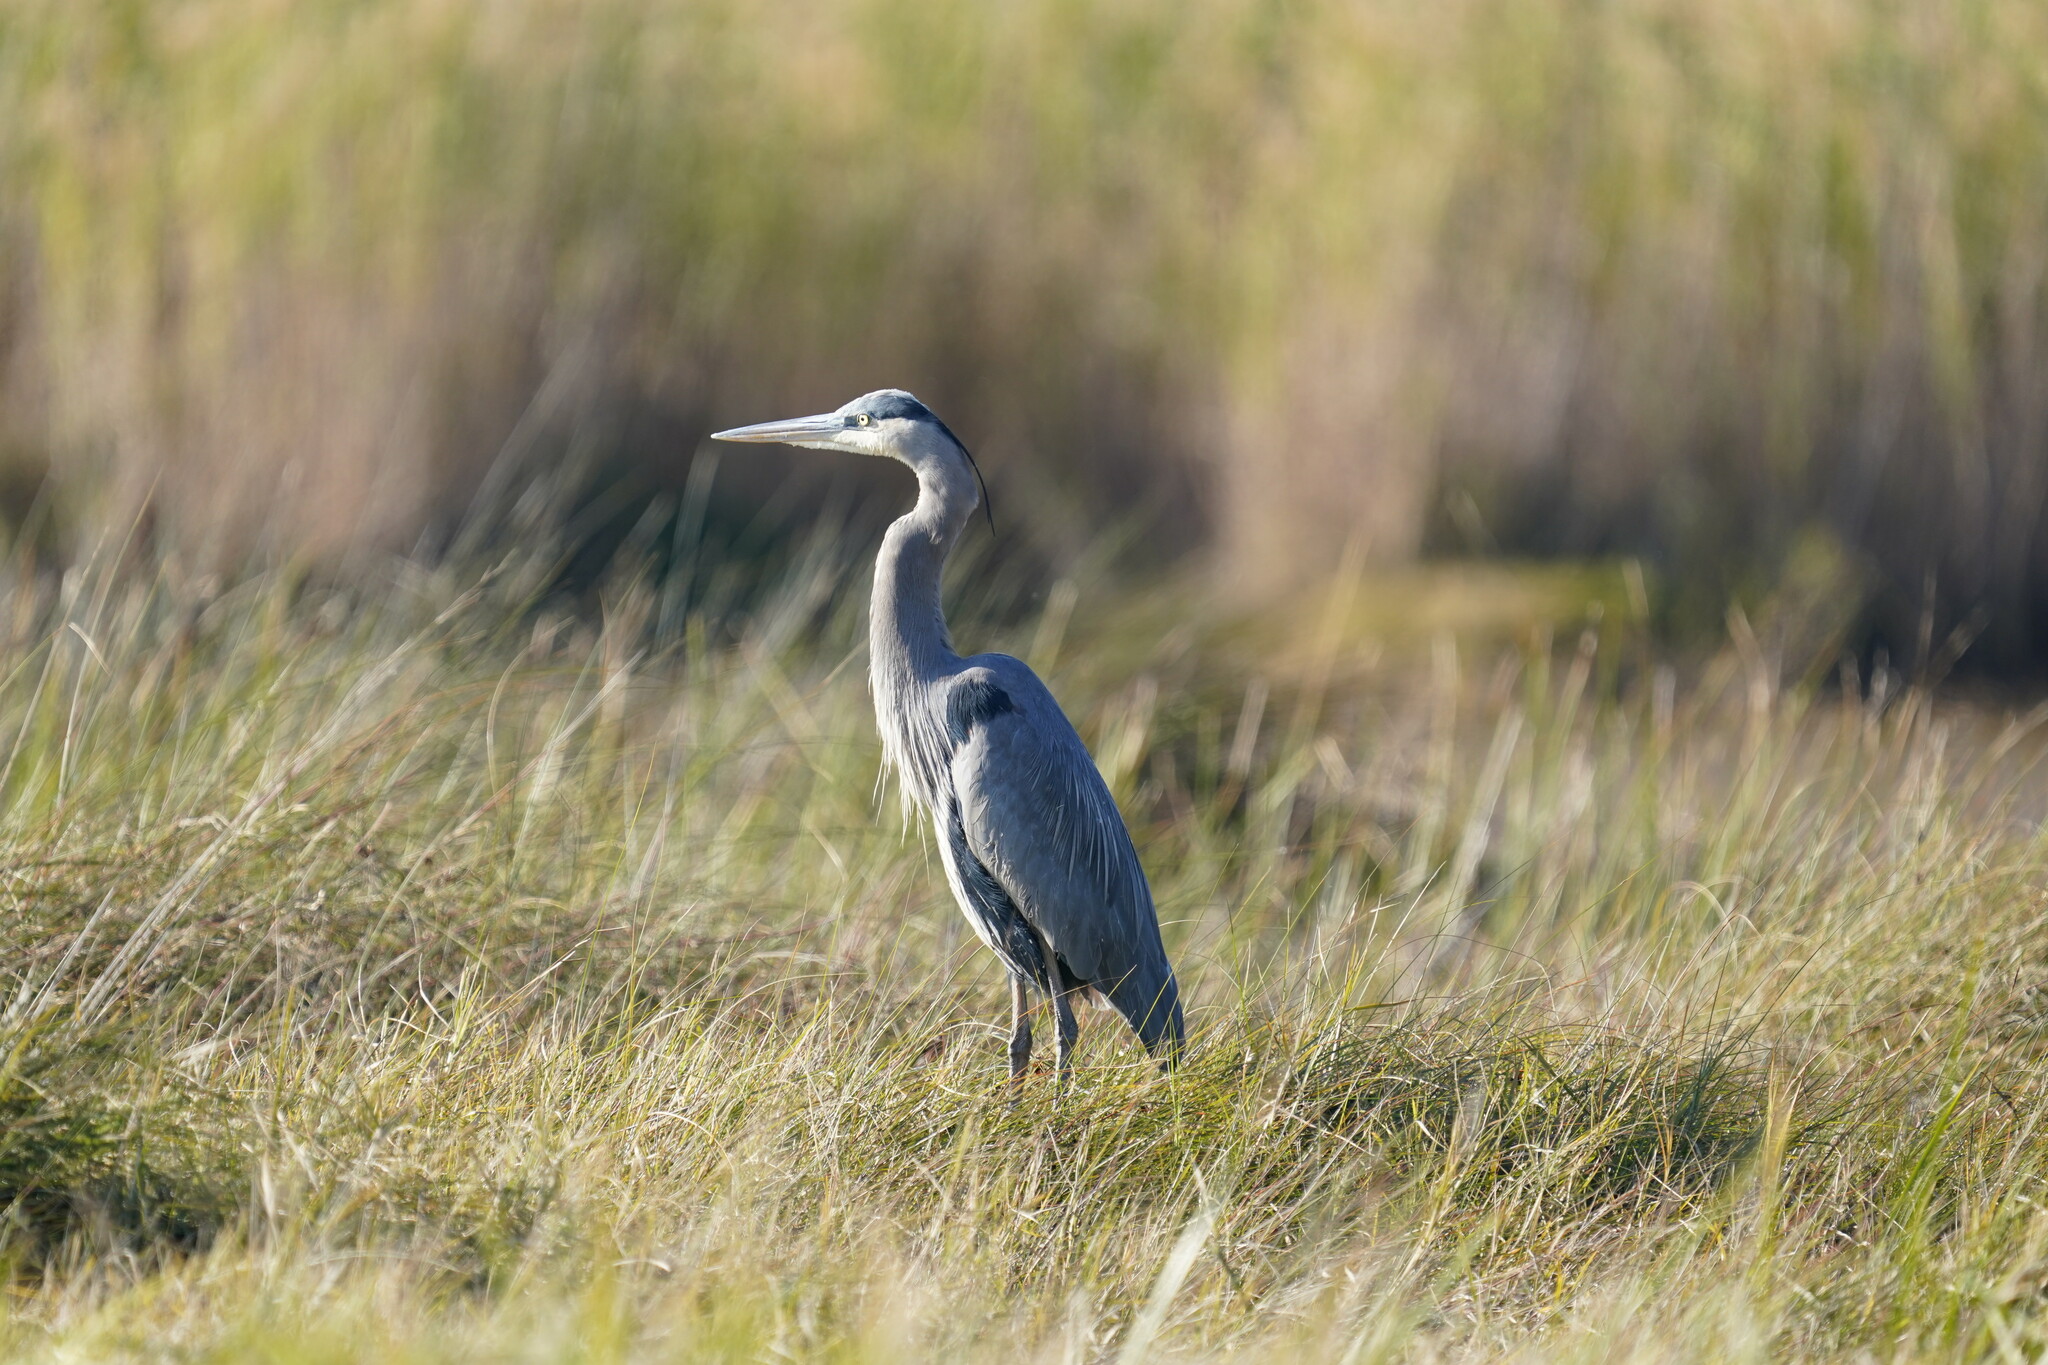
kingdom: Animalia
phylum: Chordata
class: Aves
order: Pelecaniformes
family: Ardeidae
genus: Ardea
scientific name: Ardea herodias
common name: Great blue heron
